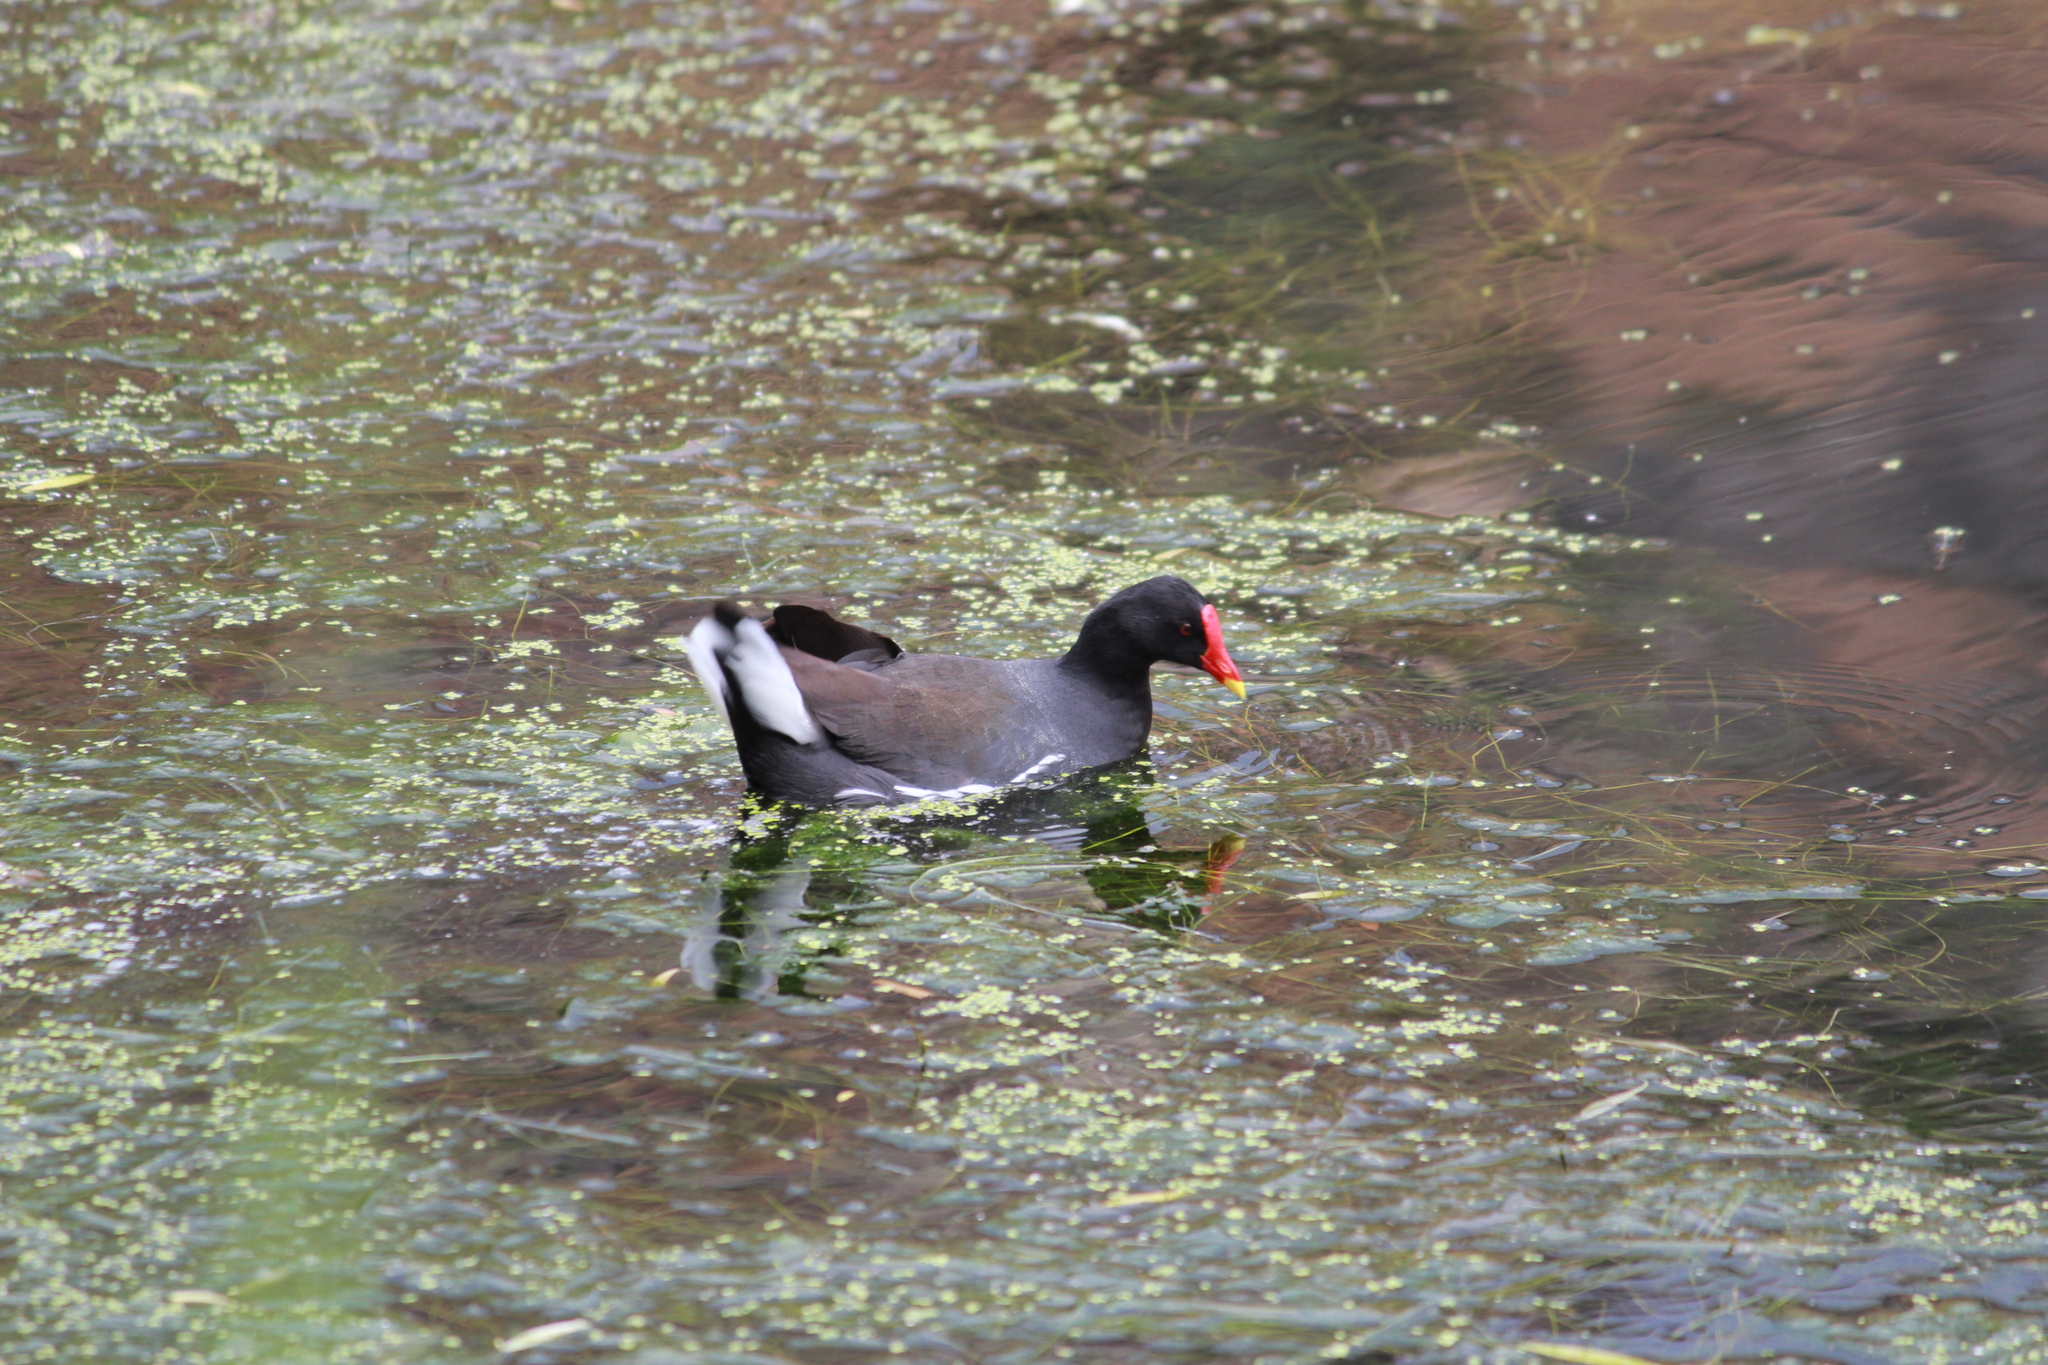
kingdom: Animalia
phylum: Chordata
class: Aves
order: Gruiformes
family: Rallidae
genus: Gallinula
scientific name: Gallinula chloropus
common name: Common moorhen
